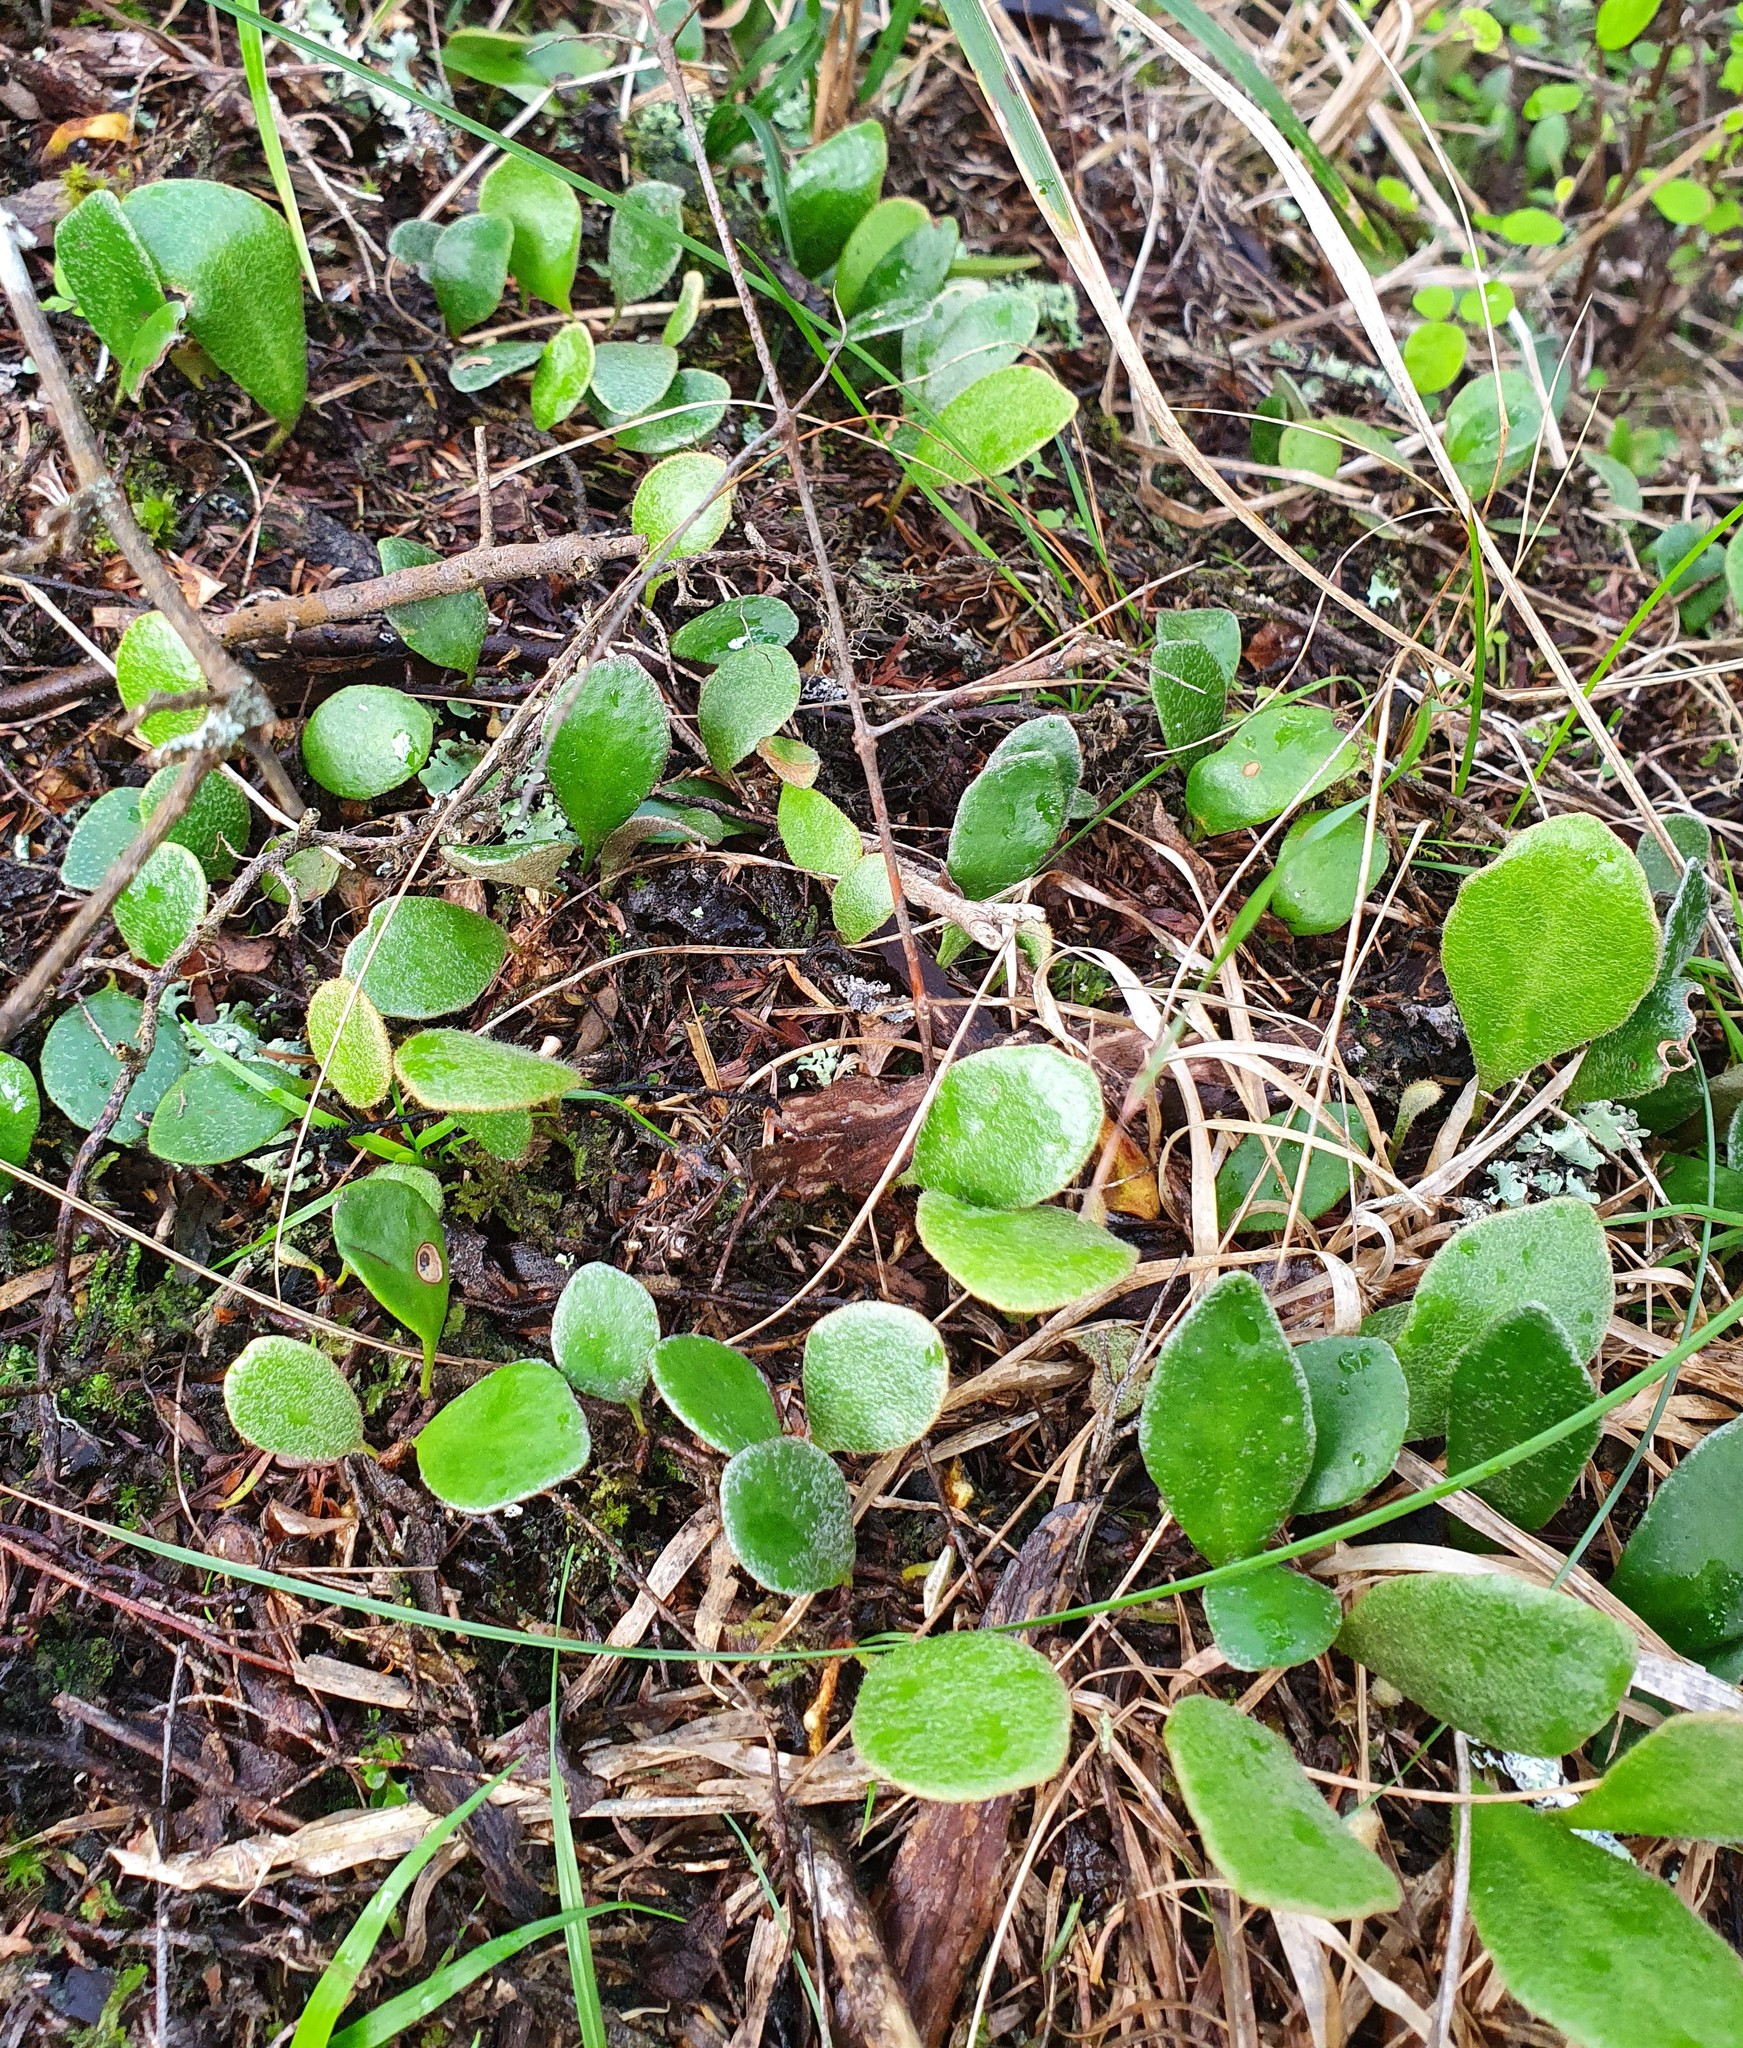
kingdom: Plantae
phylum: Tracheophyta
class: Polypodiopsida
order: Polypodiales
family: Polypodiaceae
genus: Pyrrosia
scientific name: Pyrrosia eleagnifolia
